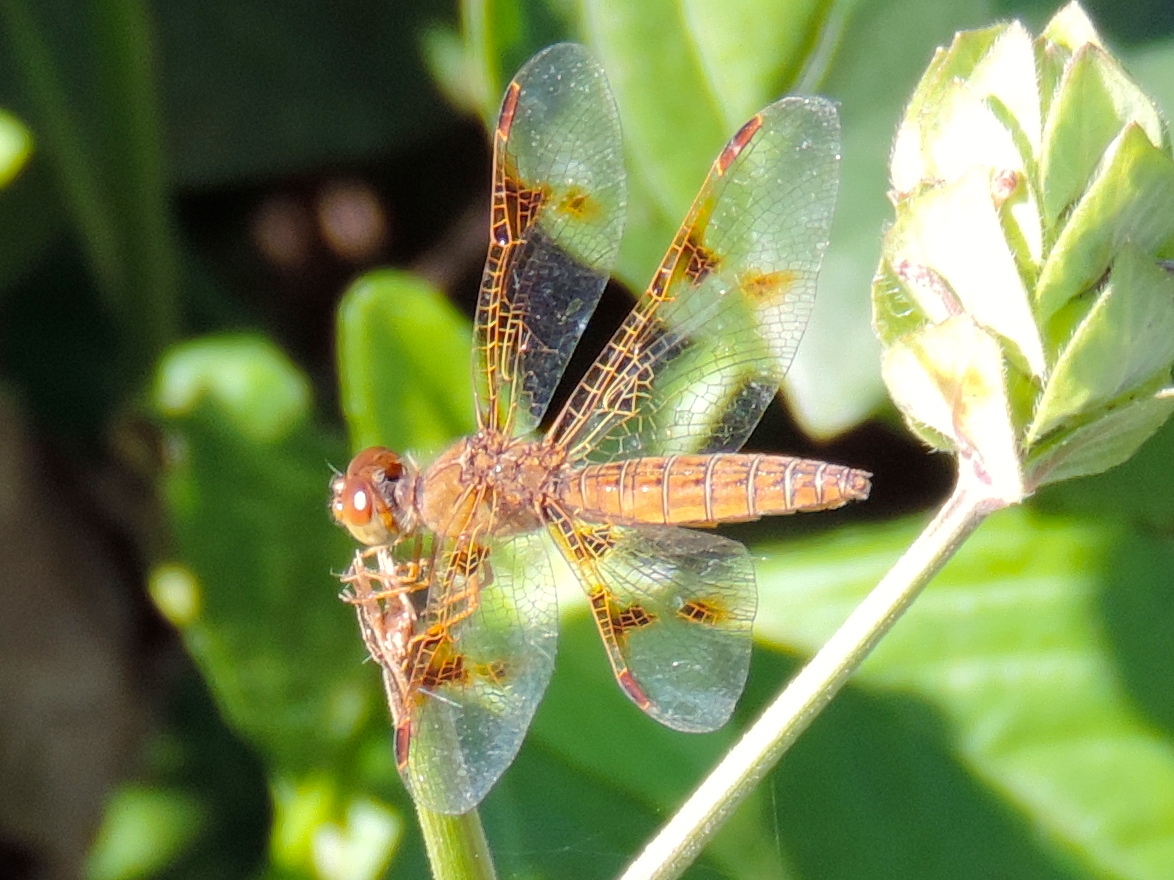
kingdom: Animalia
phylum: Arthropoda
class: Insecta
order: Odonata
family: Libellulidae
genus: Perithemis
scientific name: Perithemis intensa
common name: Mexican amberwing
